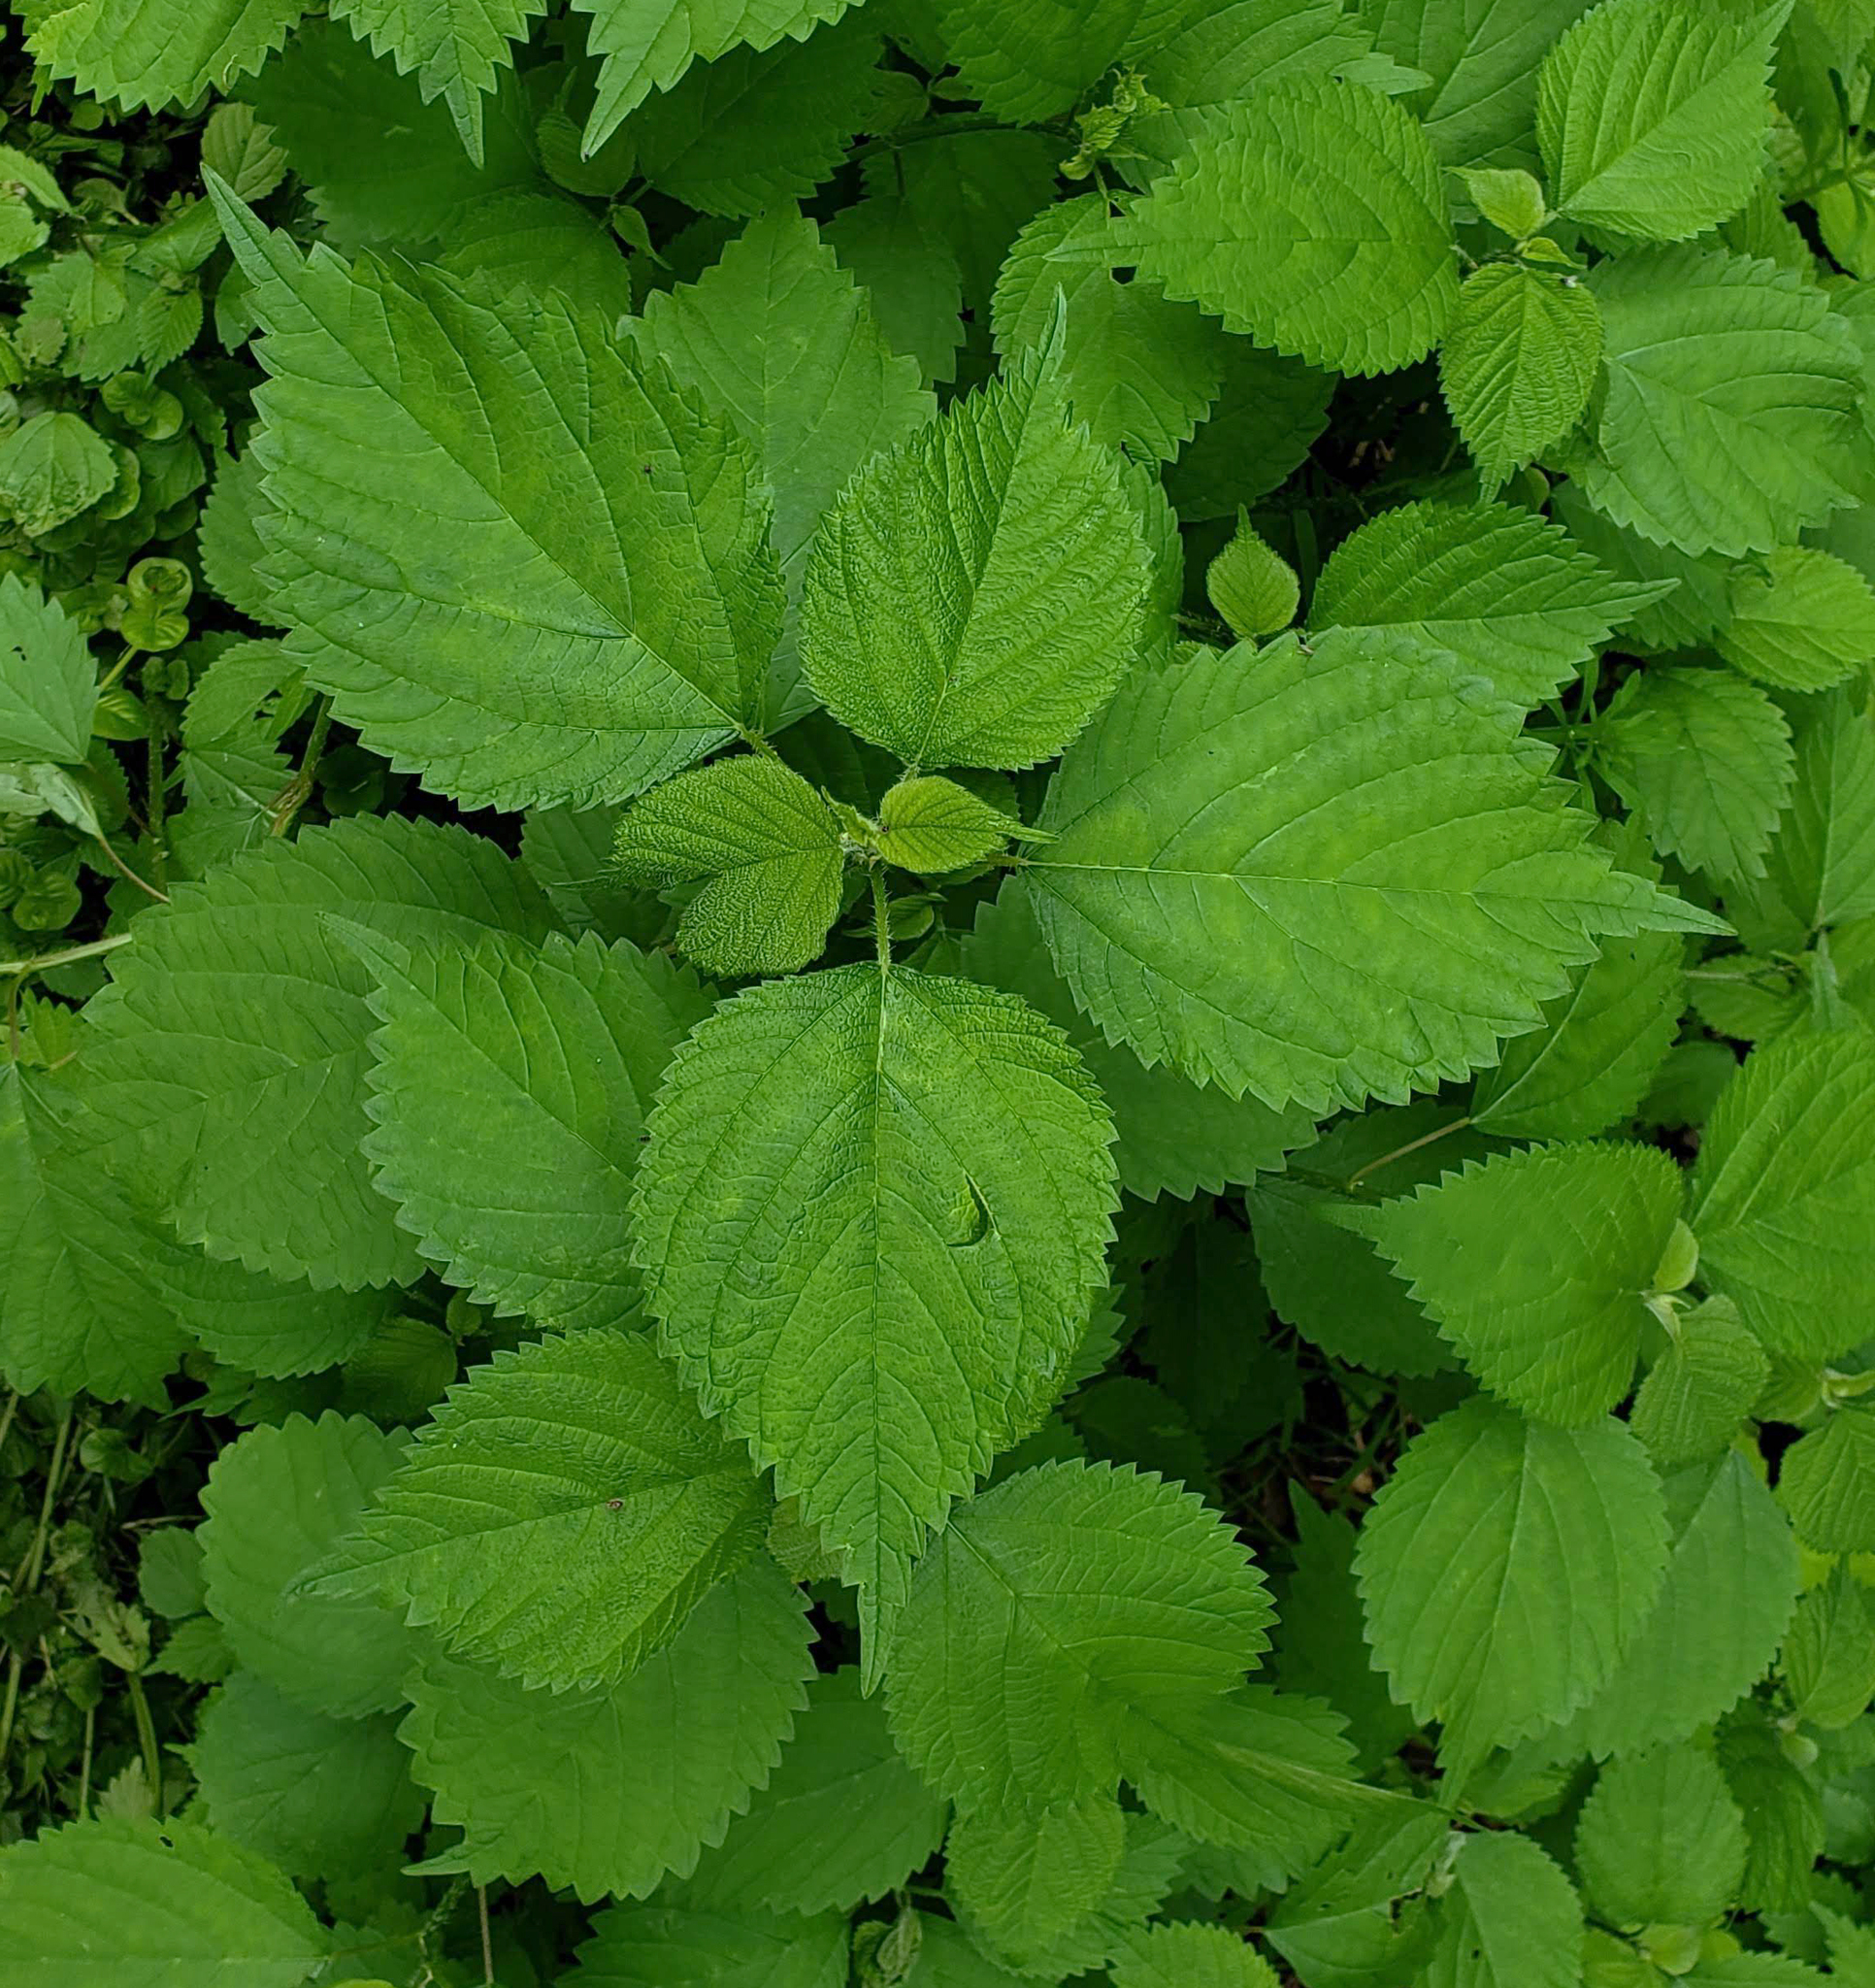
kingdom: Plantae
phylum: Tracheophyta
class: Magnoliopsida
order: Rosales
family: Urticaceae
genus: Laportea
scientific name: Laportea canadensis
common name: Canada nettle
